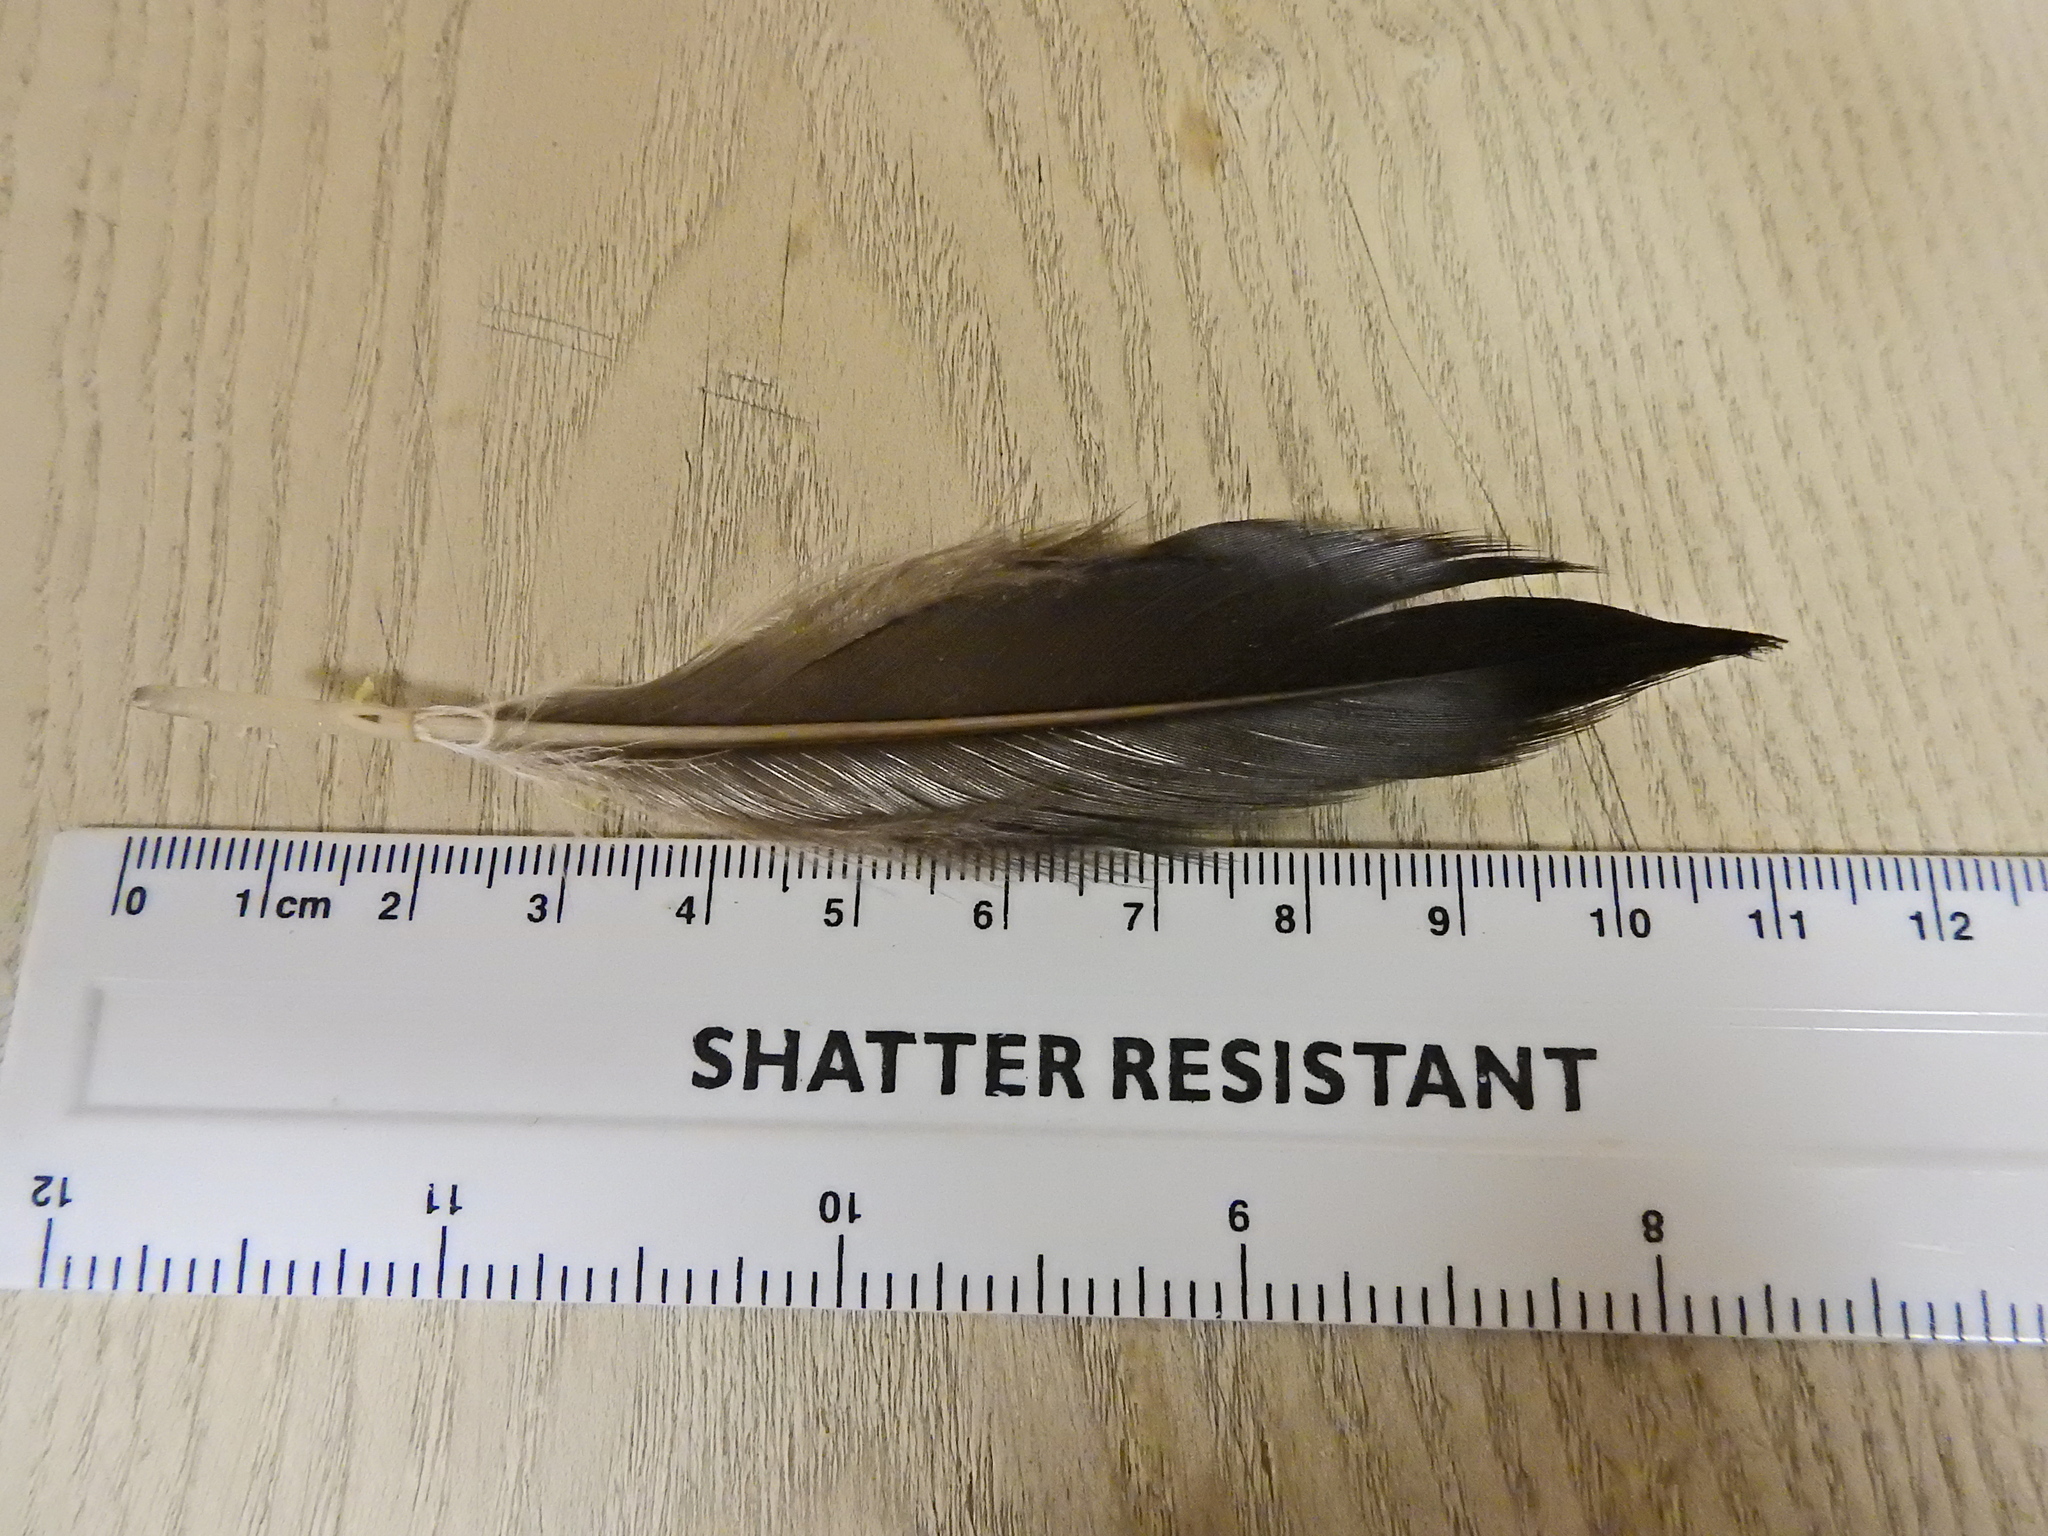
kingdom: Animalia
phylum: Chordata
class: Aves
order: Suliformes
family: Phalacrocoracidae
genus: Phalacrocorax
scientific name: Phalacrocorax carbo
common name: Great cormorant
